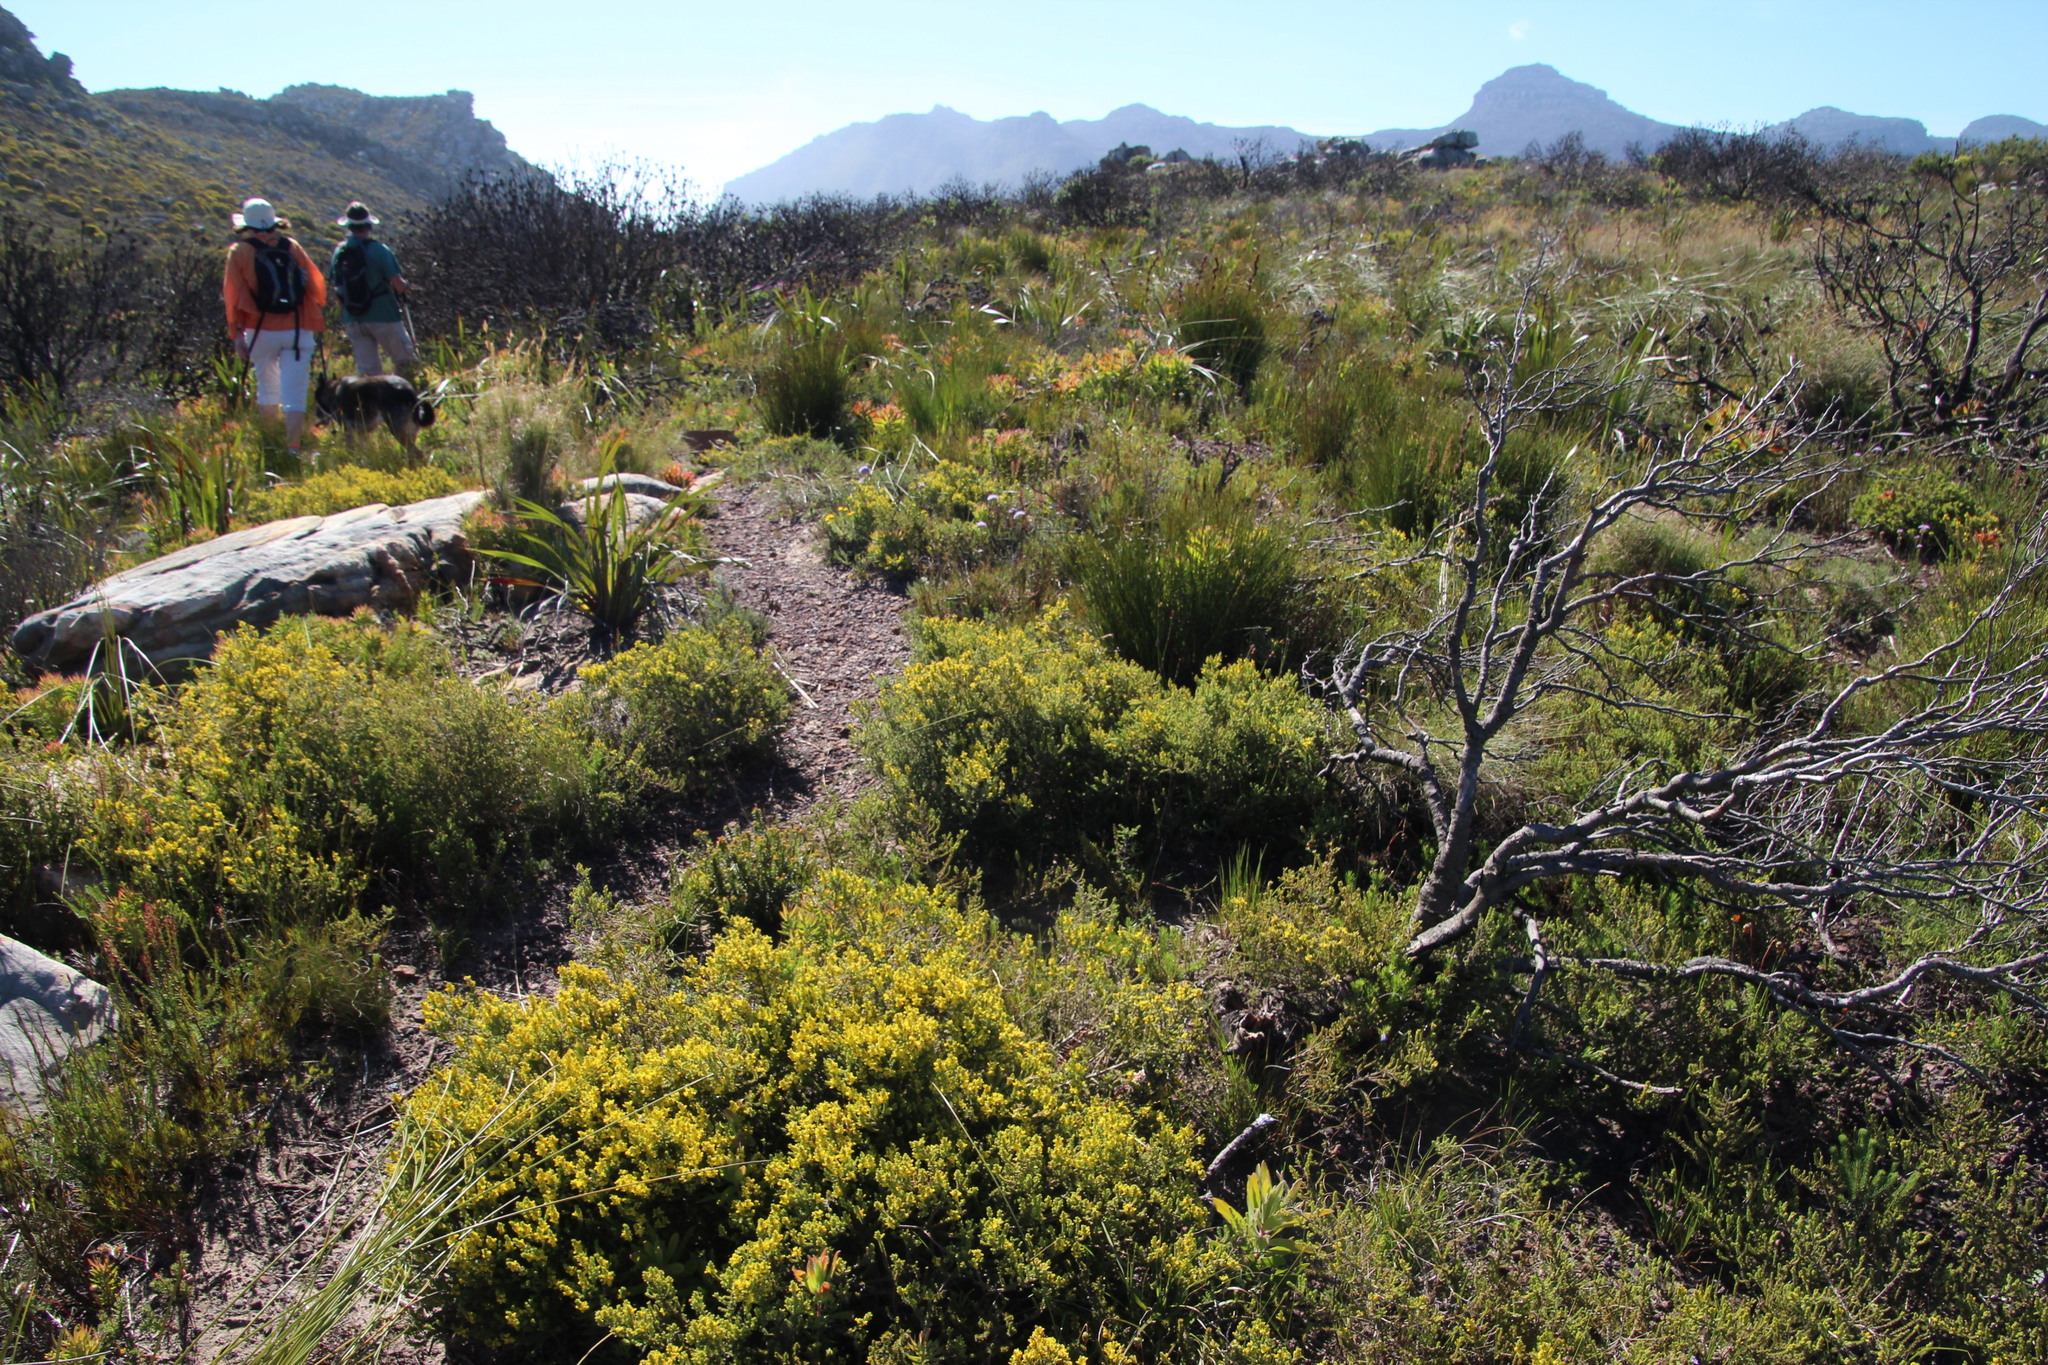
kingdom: Plantae
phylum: Tracheophyta
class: Magnoliopsida
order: Fabales
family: Fabaceae
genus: Aspalathus
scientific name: Aspalathus ericifolia
